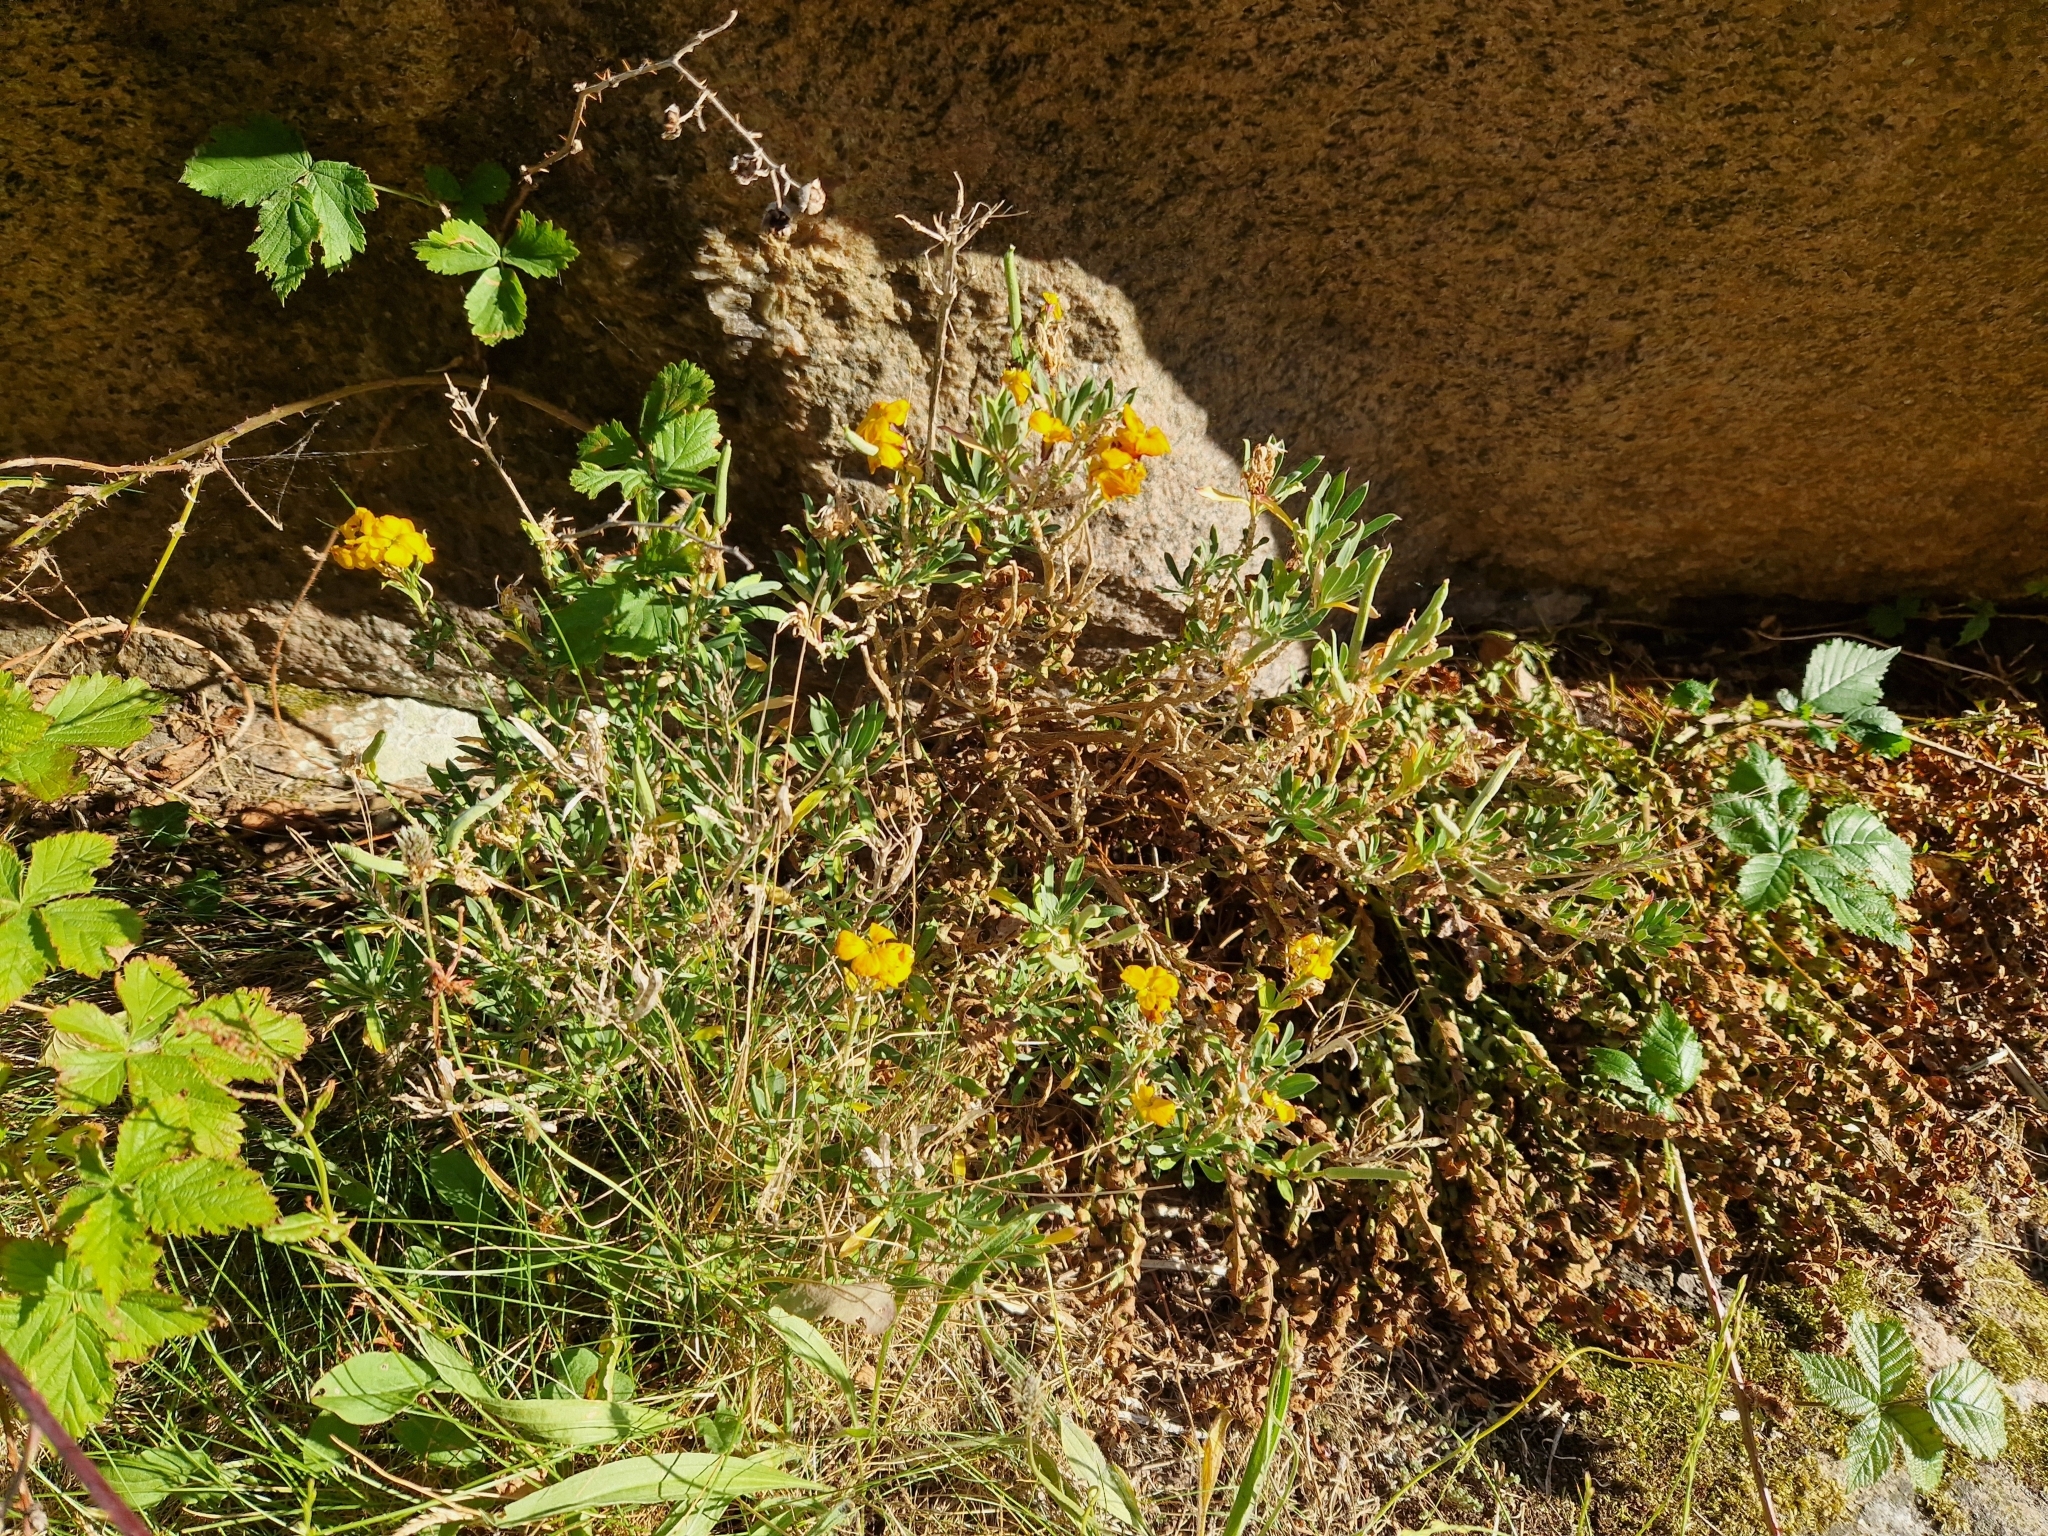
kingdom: Plantae
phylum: Tracheophyta
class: Magnoliopsida
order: Brassicales
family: Brassicaceae
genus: Erysimum
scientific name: Erysimum cheiri
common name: Wallflower
